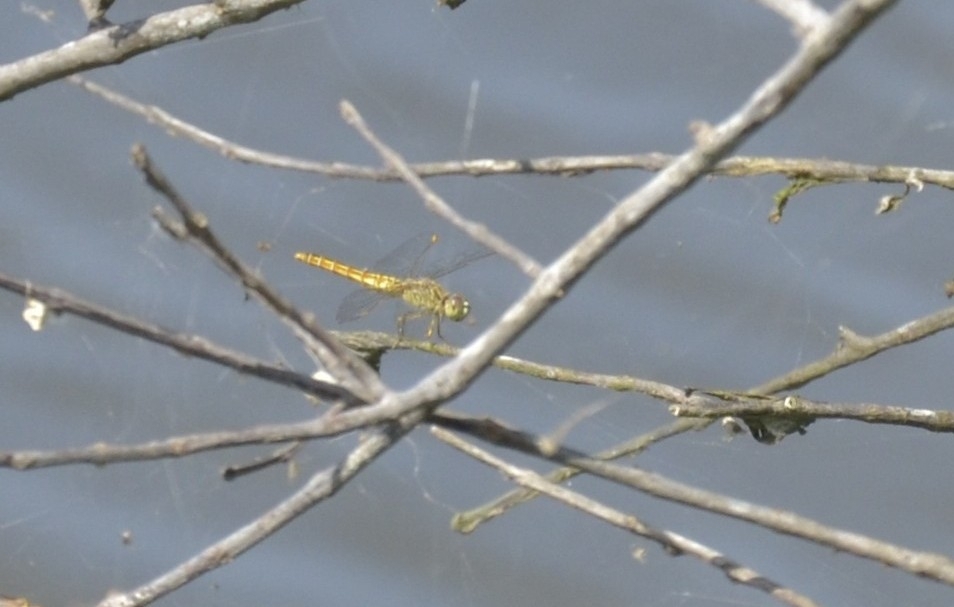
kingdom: Animalia
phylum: Arthropoda
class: Insecta
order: Odonata
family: Libellulidae
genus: Brachythemis
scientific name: Brachythemis contaminata
